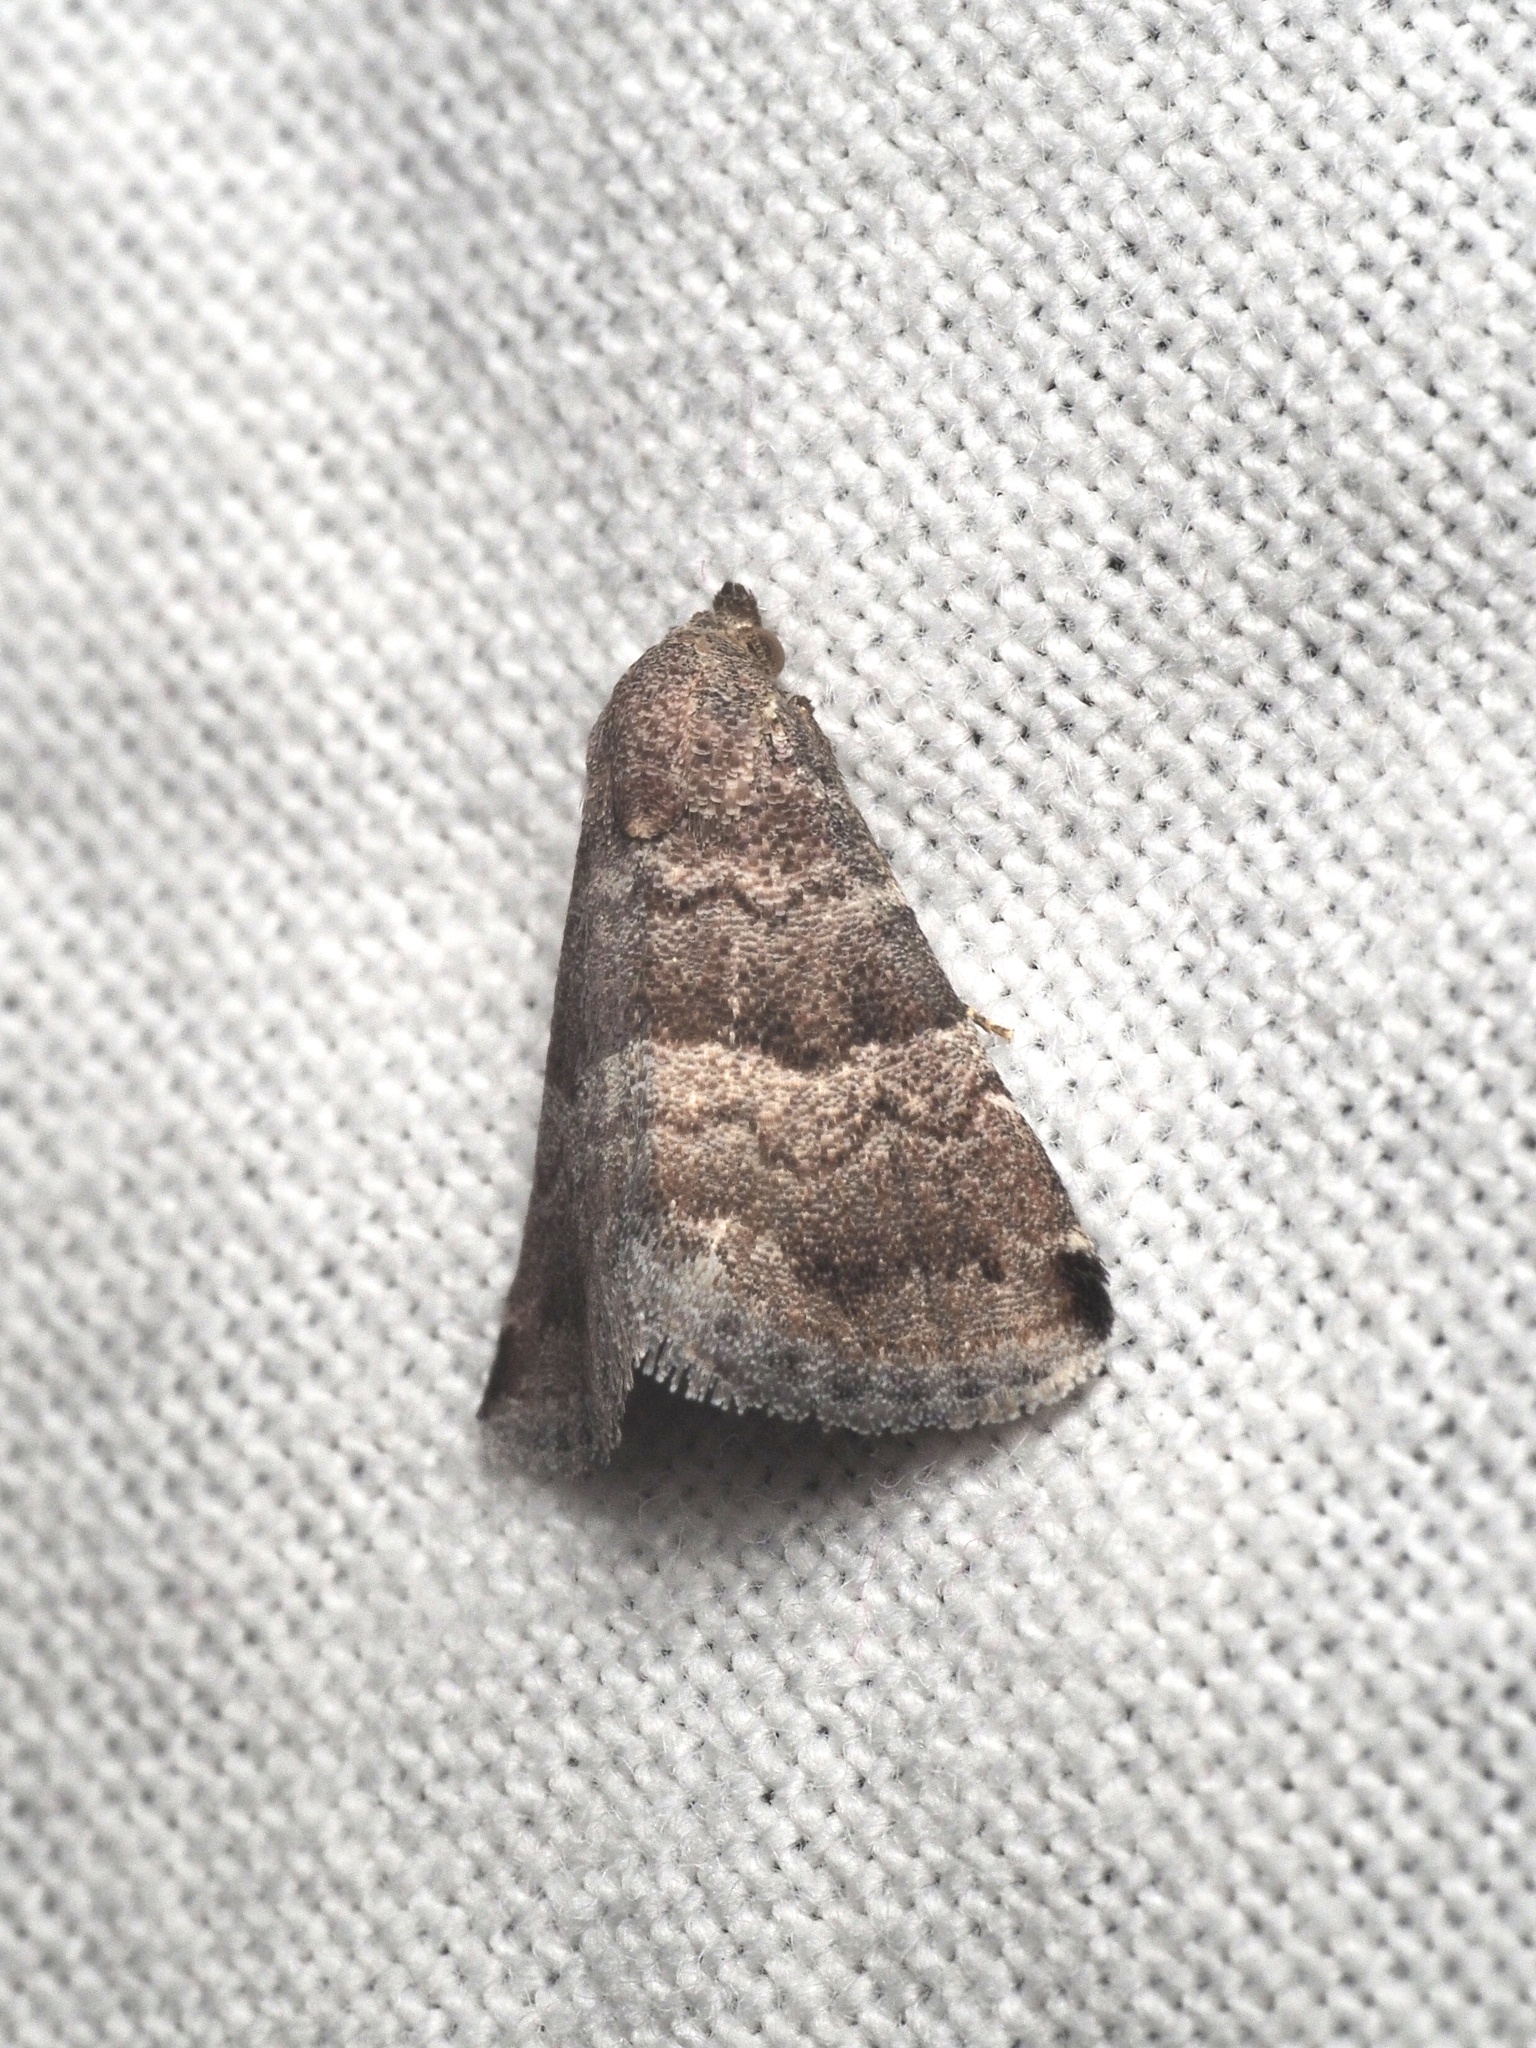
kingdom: Animalia
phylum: Arthropoda
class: Insecta
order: Lepidoptera
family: Noctuidae
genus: Eublemma
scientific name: Eublemma bolinia
